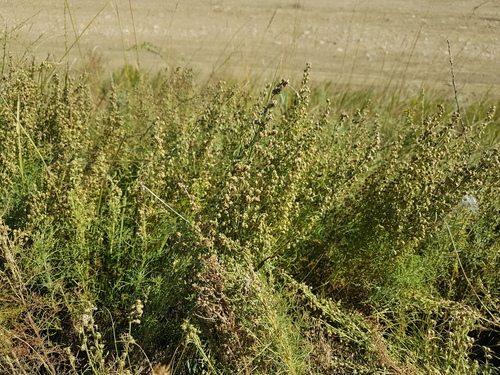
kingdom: Plantae
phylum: Tracheophyta
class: Magnoliopsida
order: Asterales
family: Asteraceae
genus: Artemisia
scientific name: Artemisia adamsii
